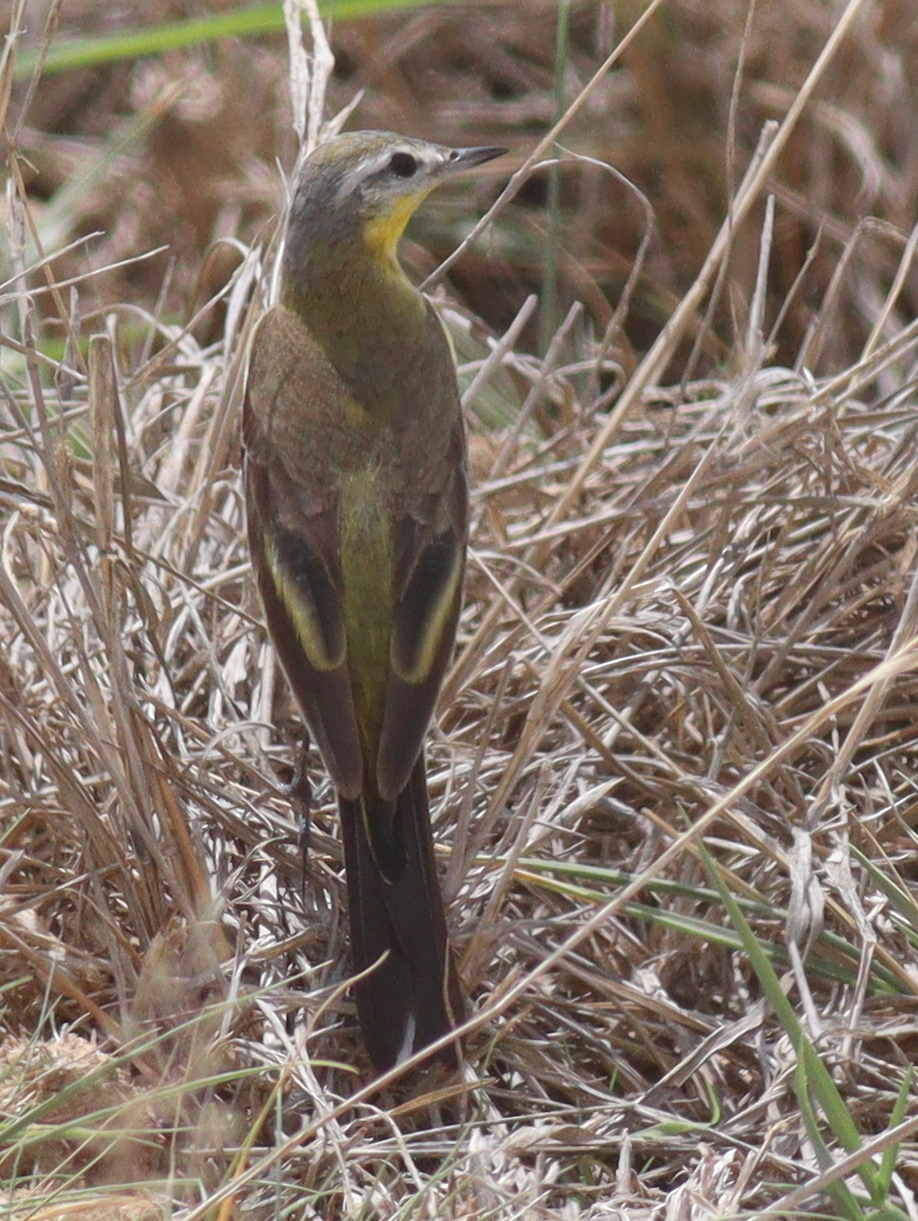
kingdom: Animalia
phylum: Chordata
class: Aves
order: Passeriformes
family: Motacillidae
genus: Motacilla
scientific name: Motacilla flava
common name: Western yellow wagtail
